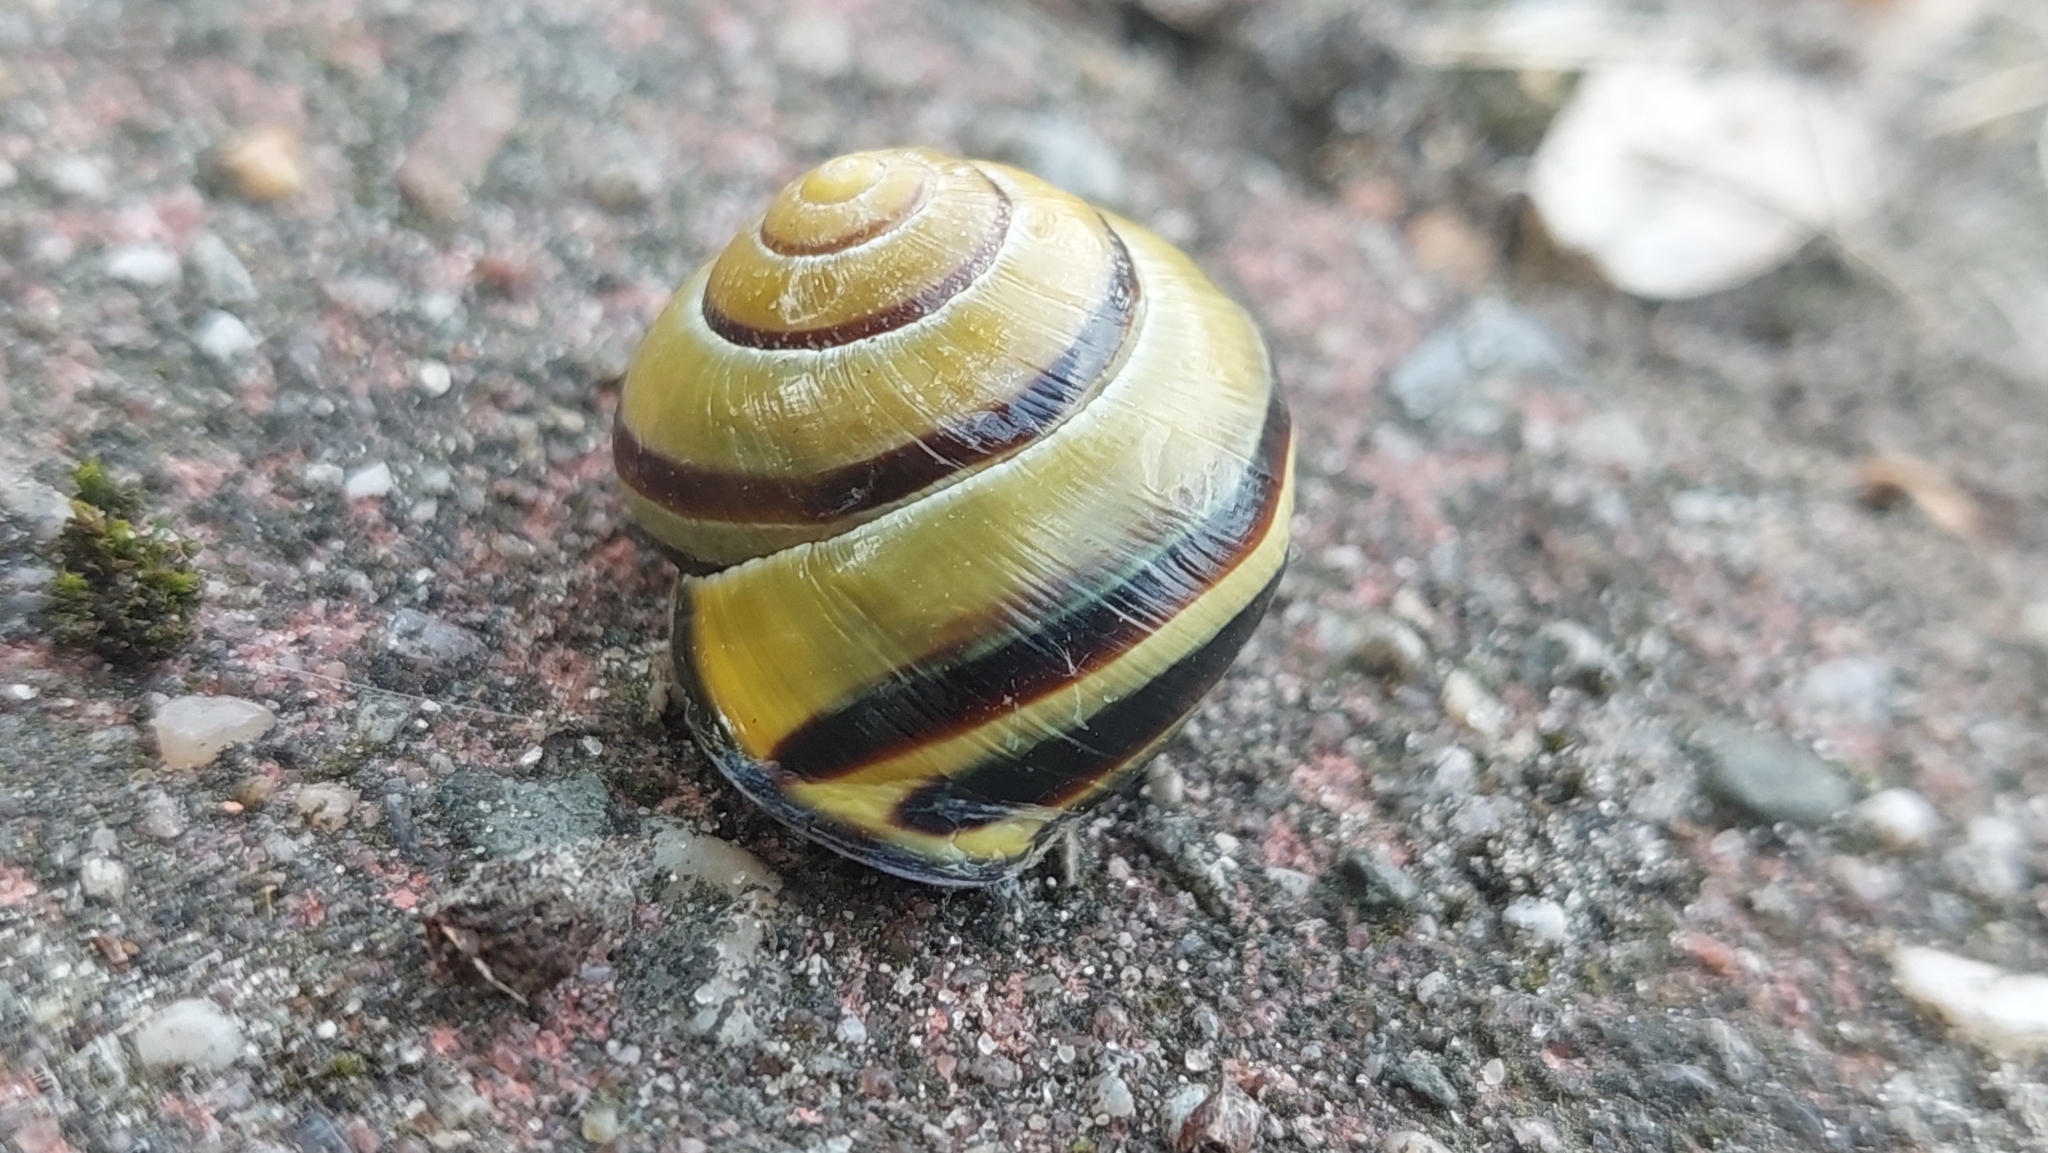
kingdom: Animalia
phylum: Mollusca
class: Gastropoda
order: Stylommatophora
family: Helicidae
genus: Cepaea
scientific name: Cepaea nemoralis
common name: Grovesnail
